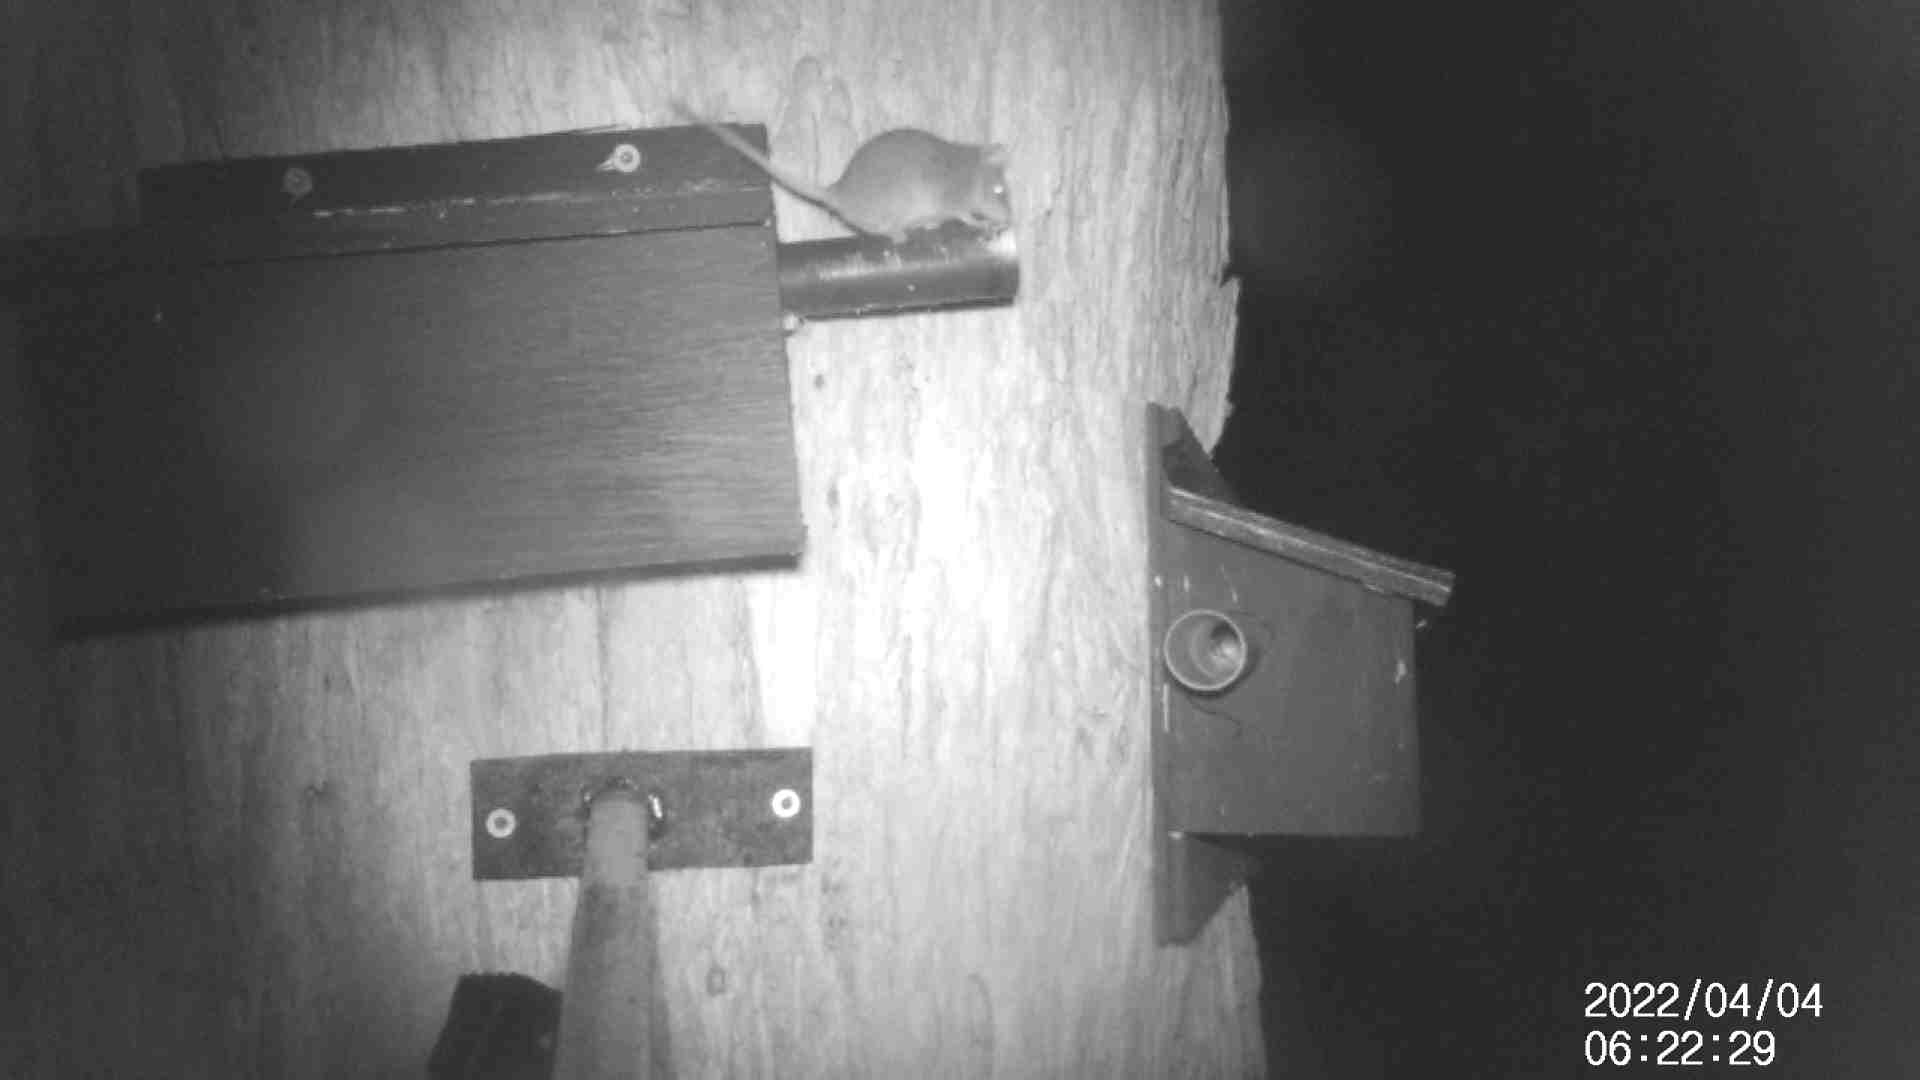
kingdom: Animalia
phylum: Chordata
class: Mammalia
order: Dasyuromorphia
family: Dasyuridae
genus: Antechinus
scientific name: Antechinus agilis
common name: Agile antechinus
